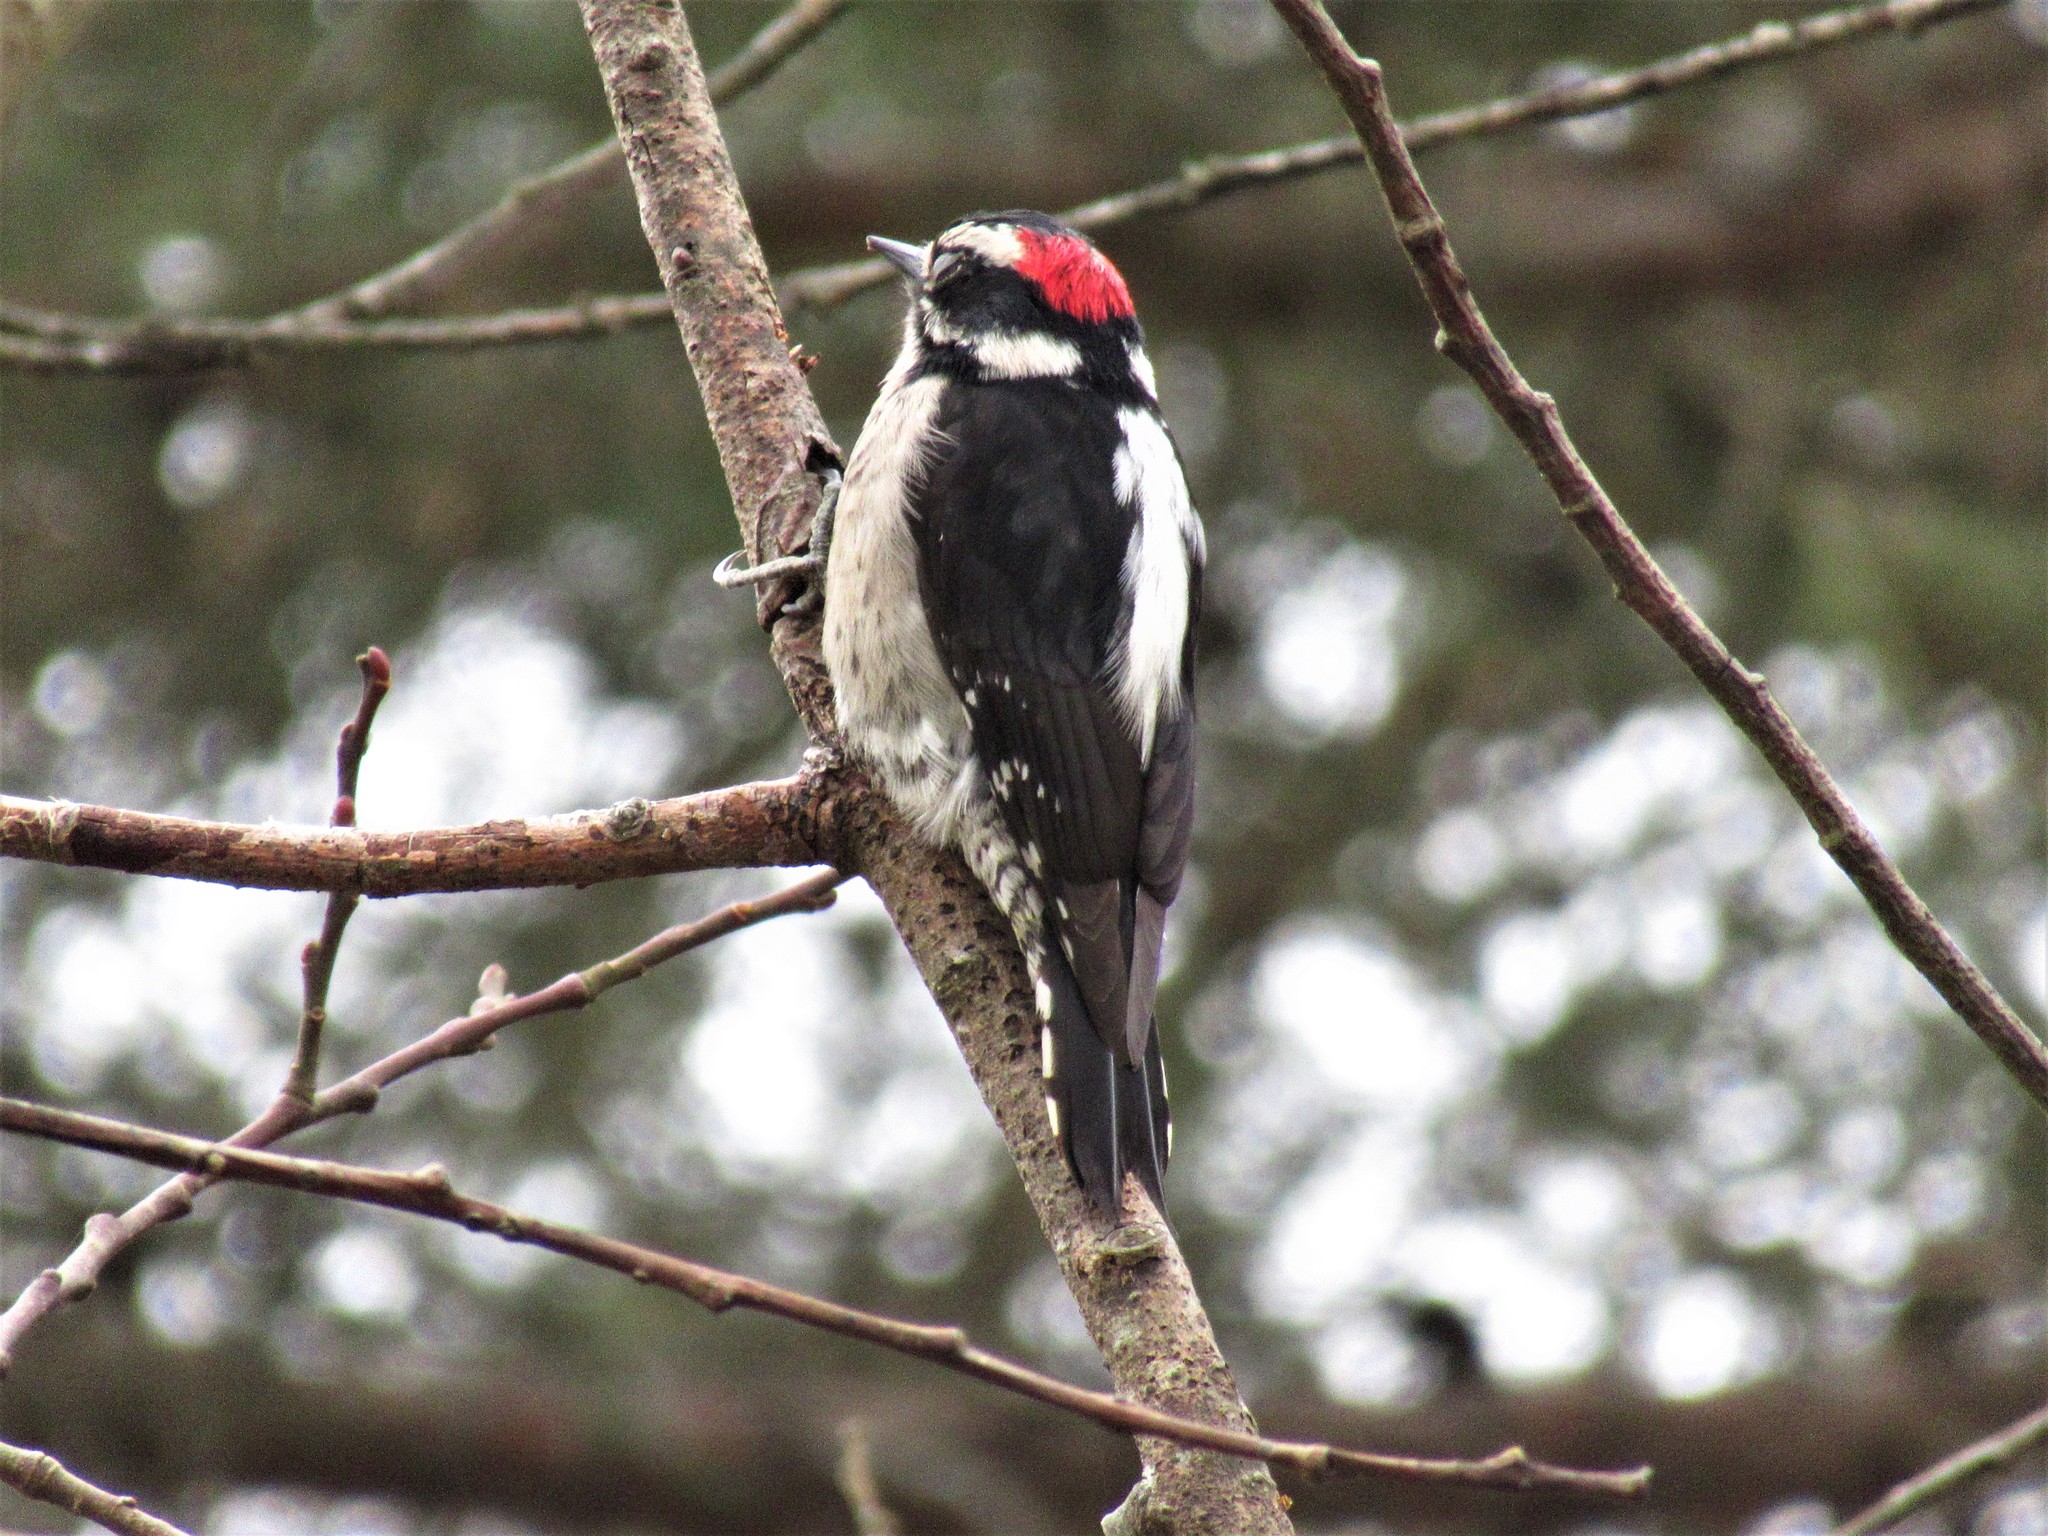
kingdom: Animalia
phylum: Chordata
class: Aves
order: Piciformes
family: Picidae
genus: Dryobates
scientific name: Dryobates pubescens
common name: Downy woodpecker
